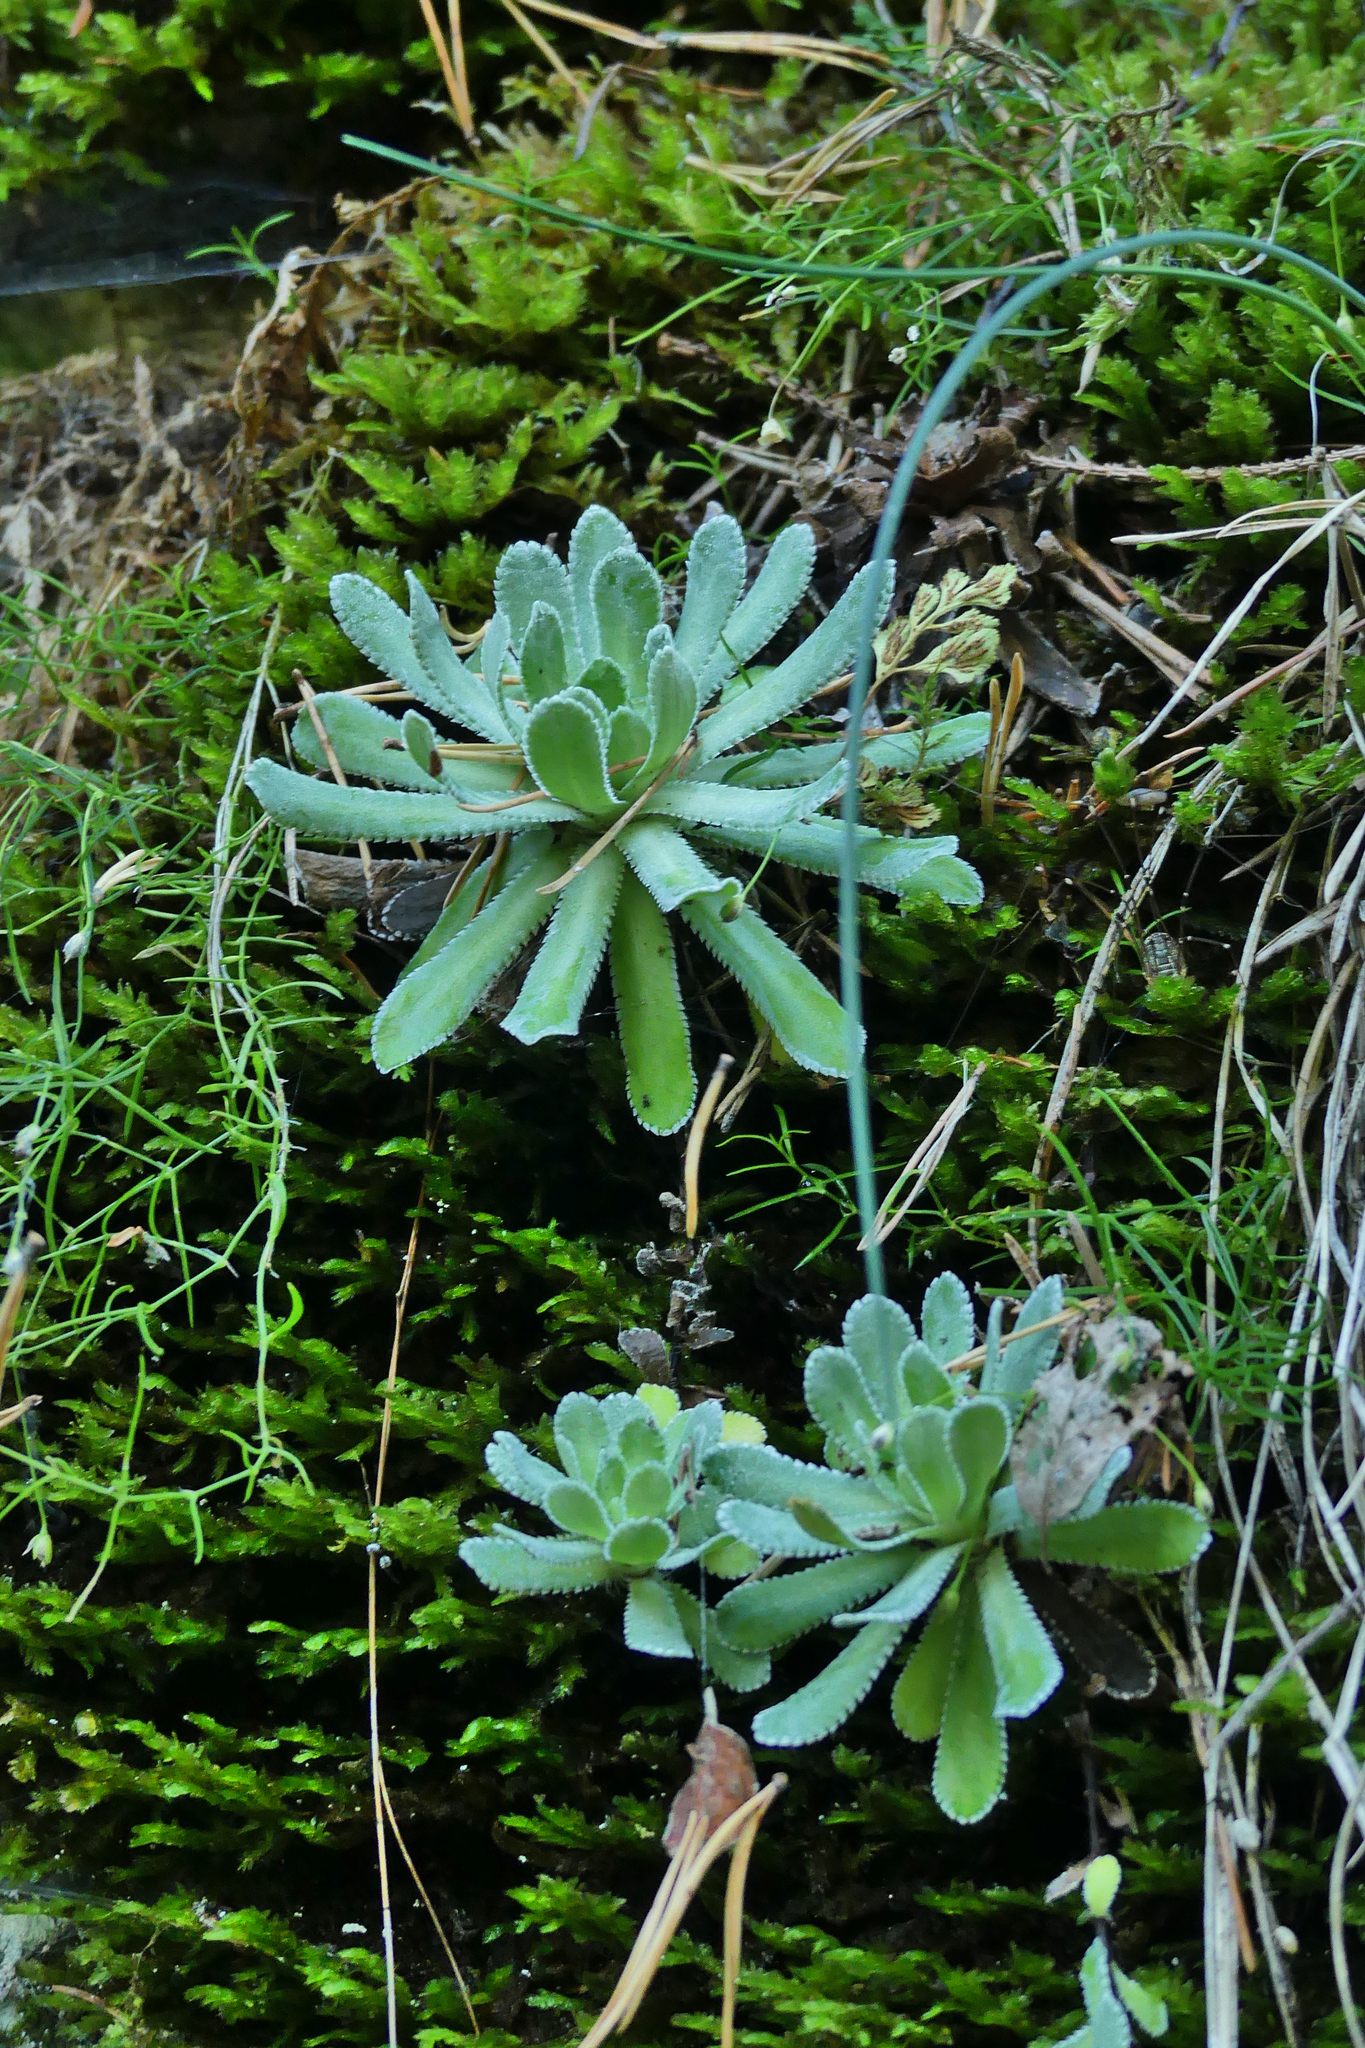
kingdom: Plantae
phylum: Tracheophyta
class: Magnoliopsida
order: Saxifragales
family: Saxifragaceae
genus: Saxifraga
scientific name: Saxifraga paniculata
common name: Livelong saxifrage
